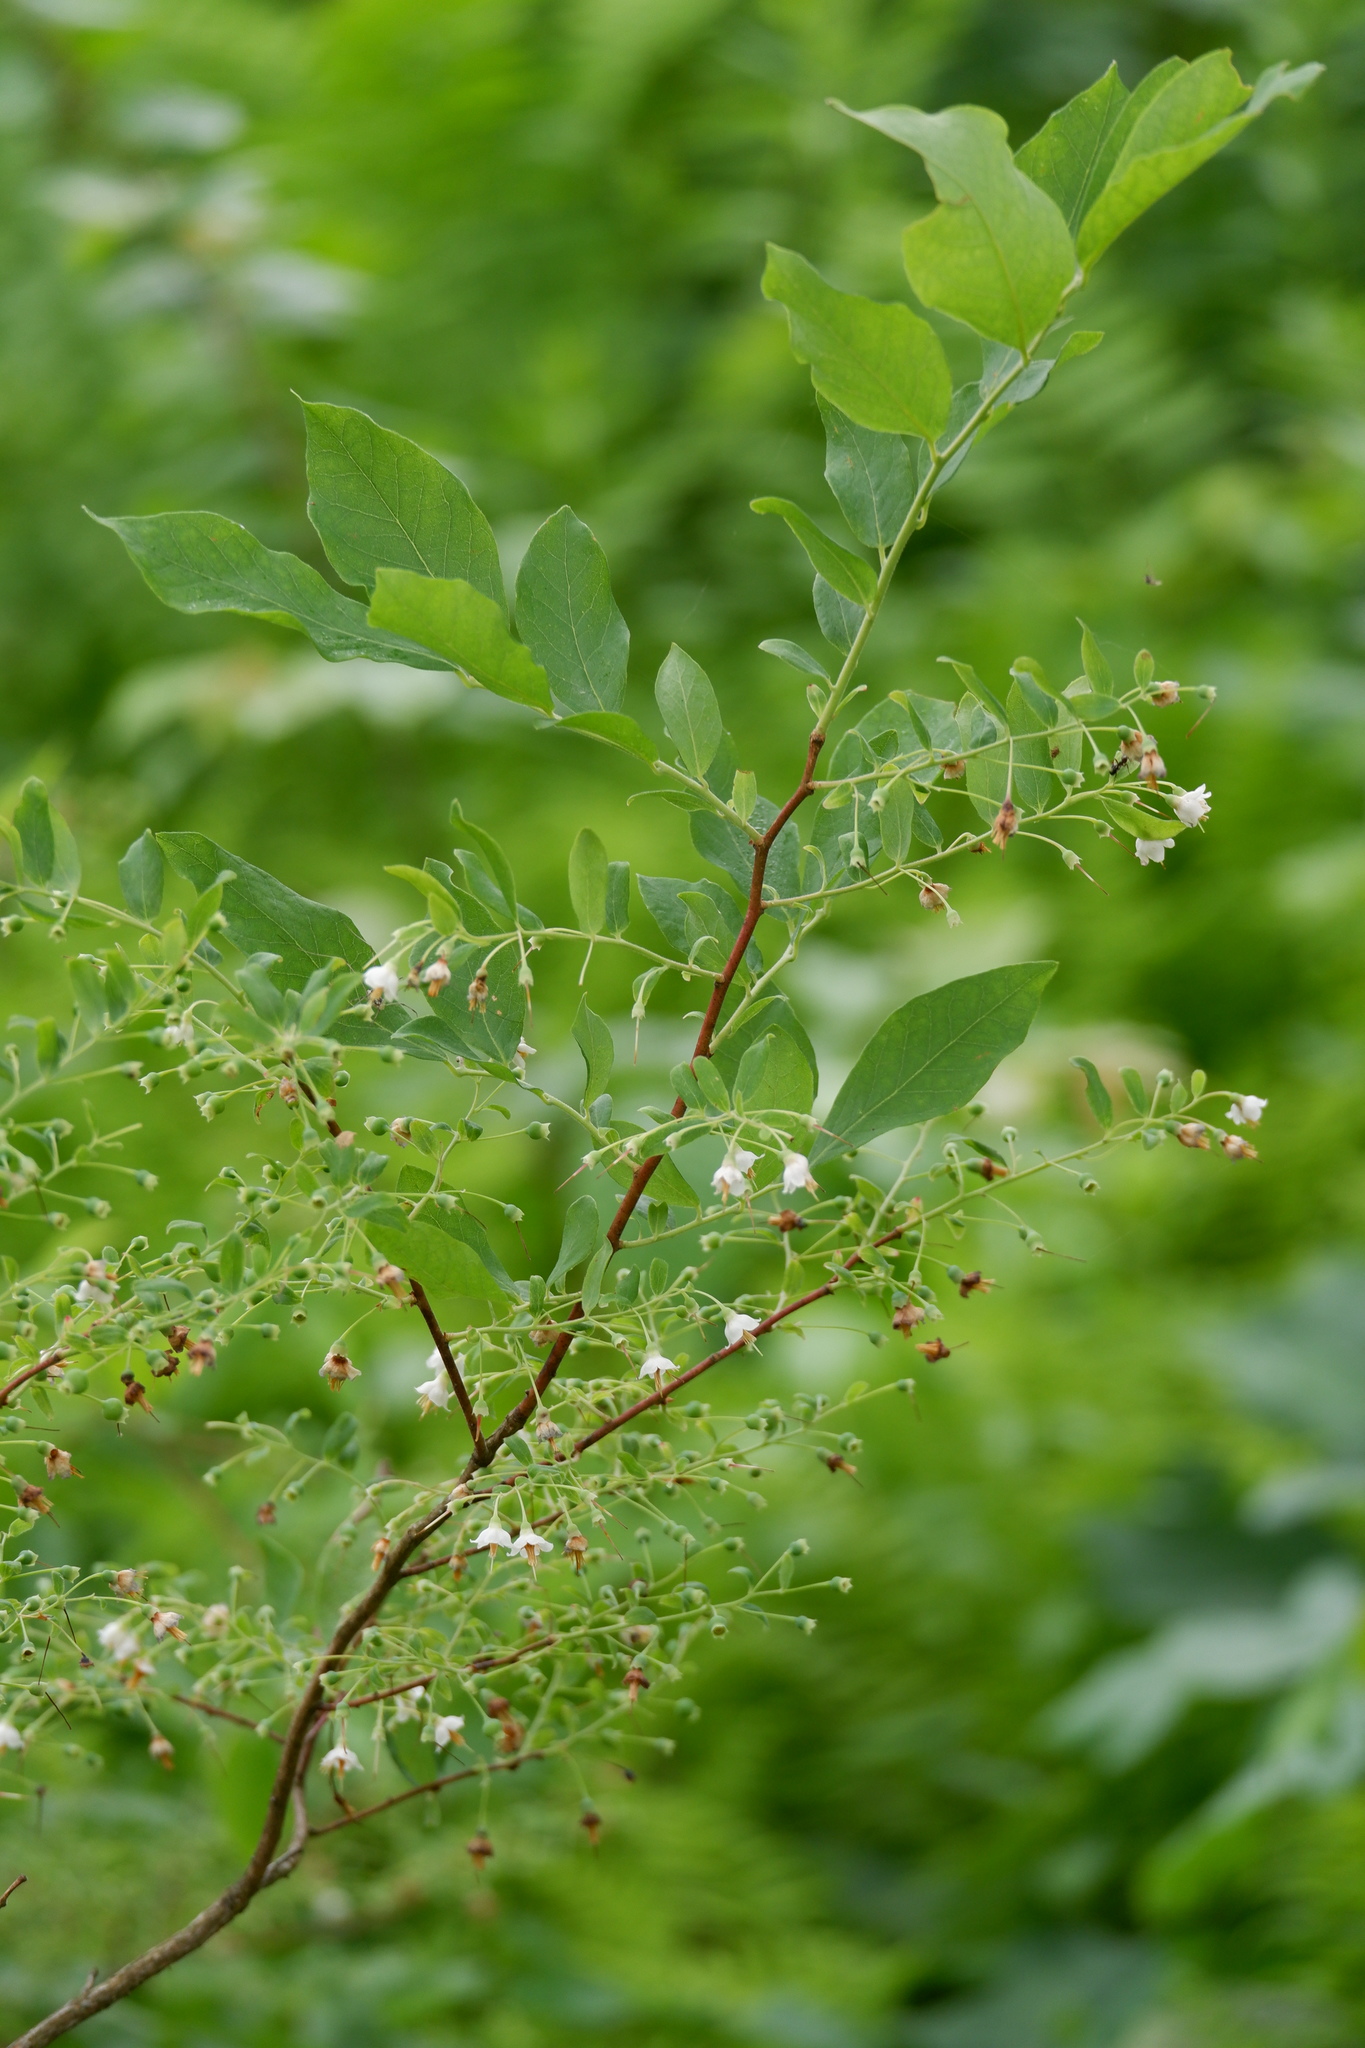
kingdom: Plantae
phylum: Tracheophyta
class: Magnoliopsida
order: Ericales
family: Ericaceae
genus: Vaccinium
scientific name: Vaccinium stamineum
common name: Deerberry
